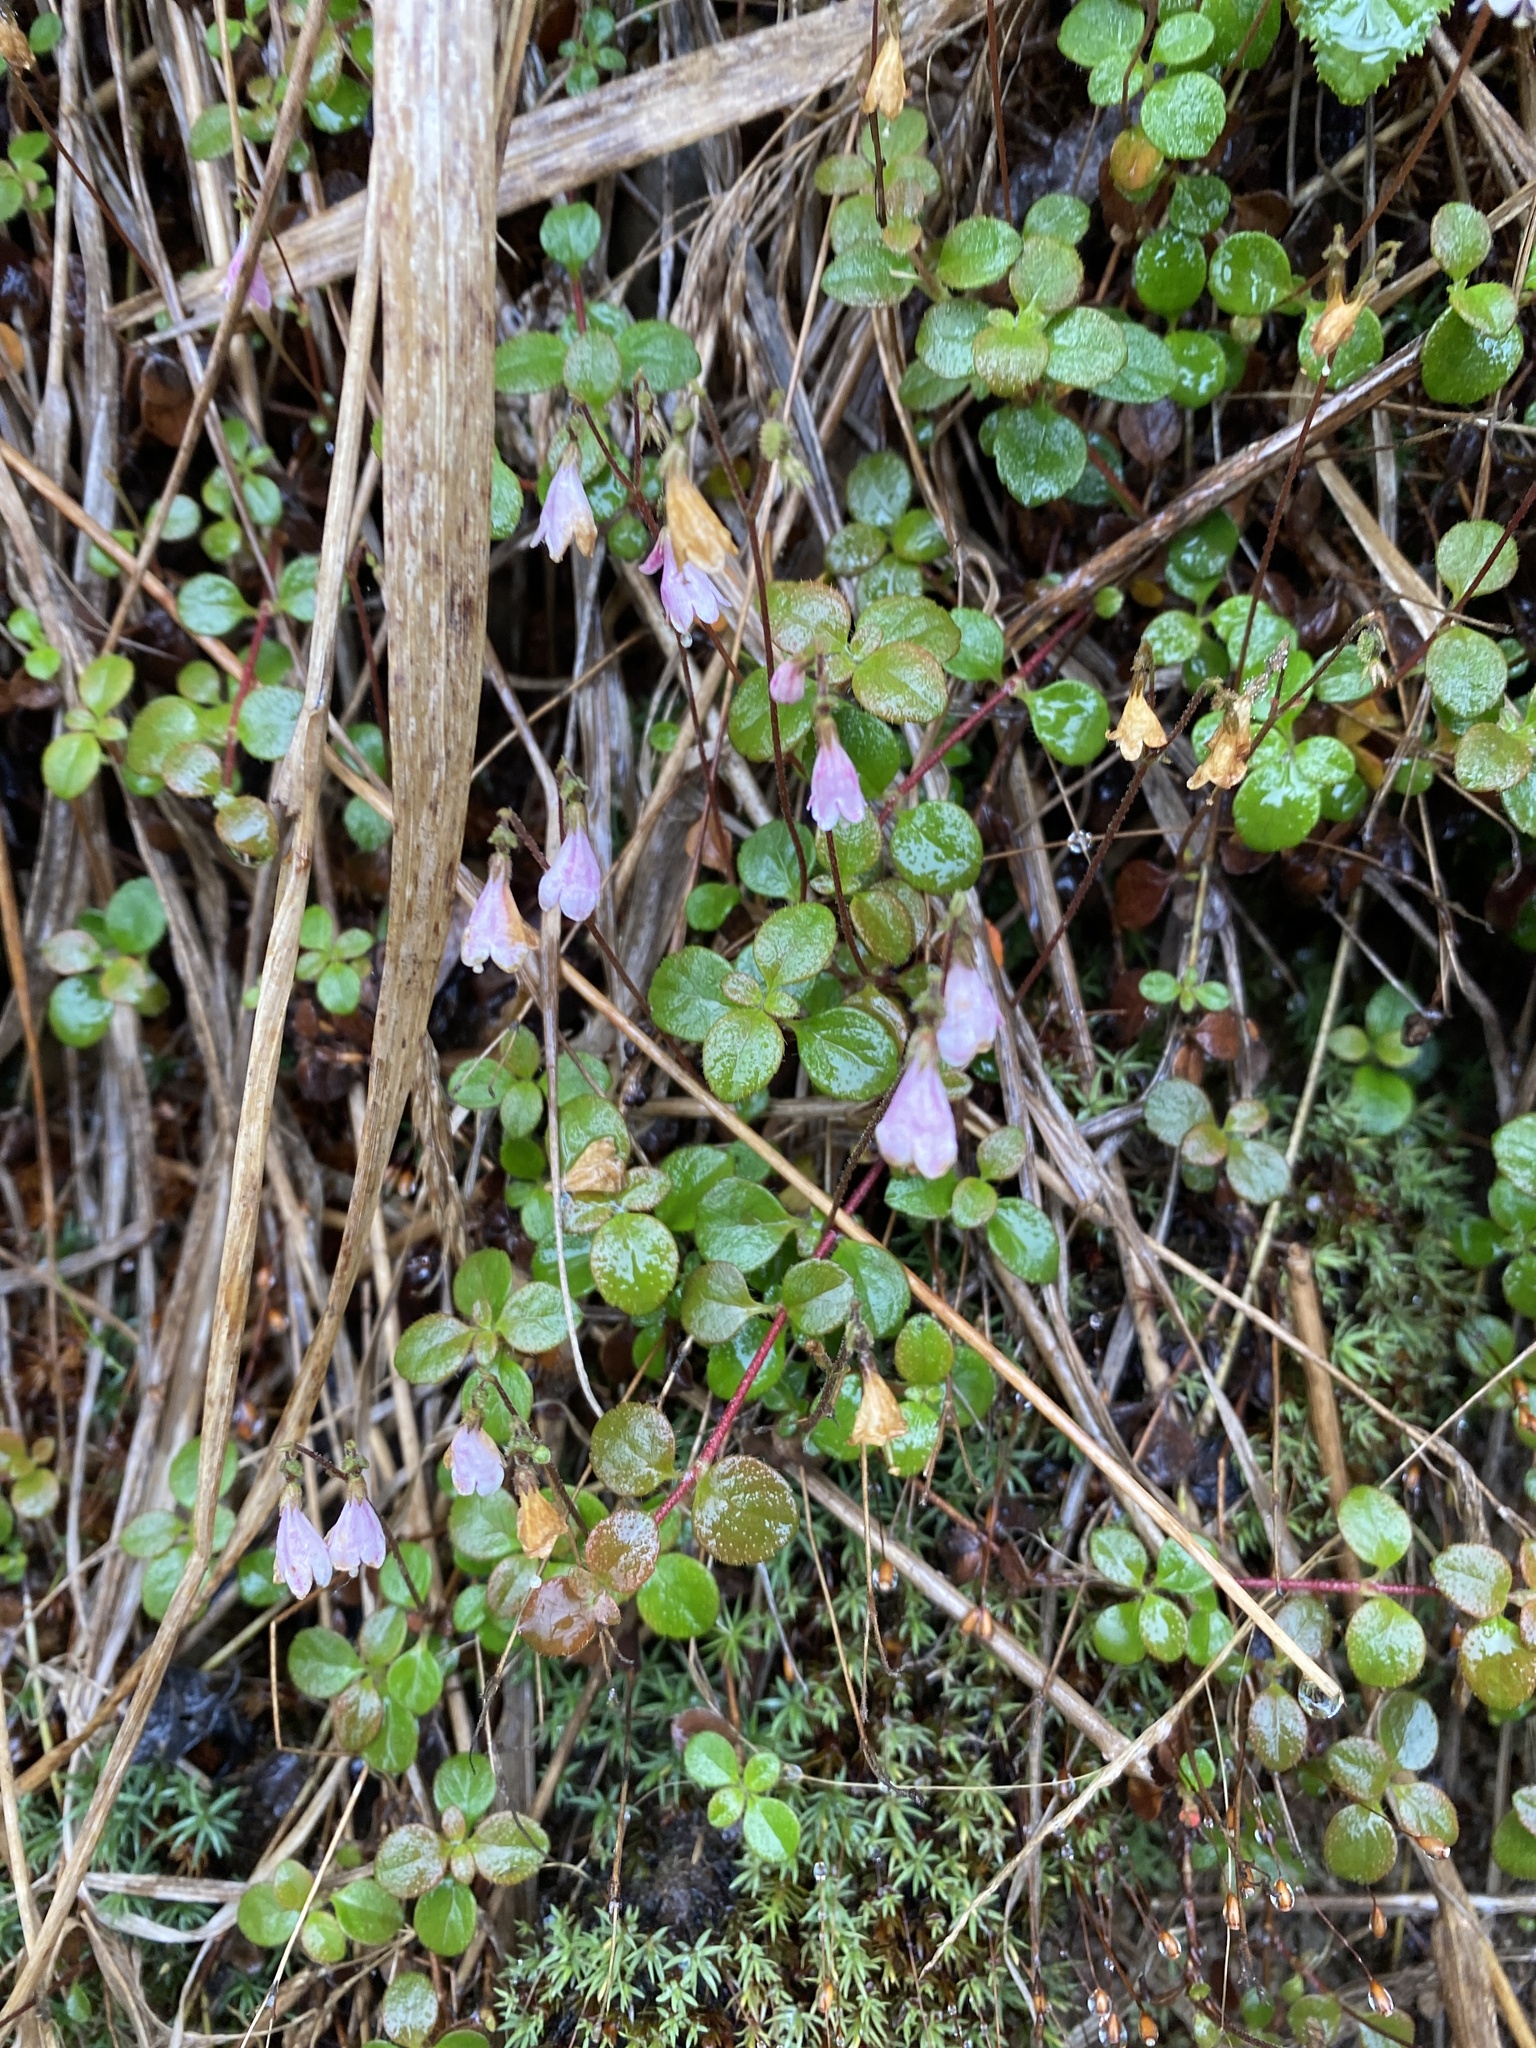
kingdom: Plantae
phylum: Tracheophyta
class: Magnoliopsida
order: Dipsacales
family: Caprifoliaceae
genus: Linnaea
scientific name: Linnaea borealis
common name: Twinflower
